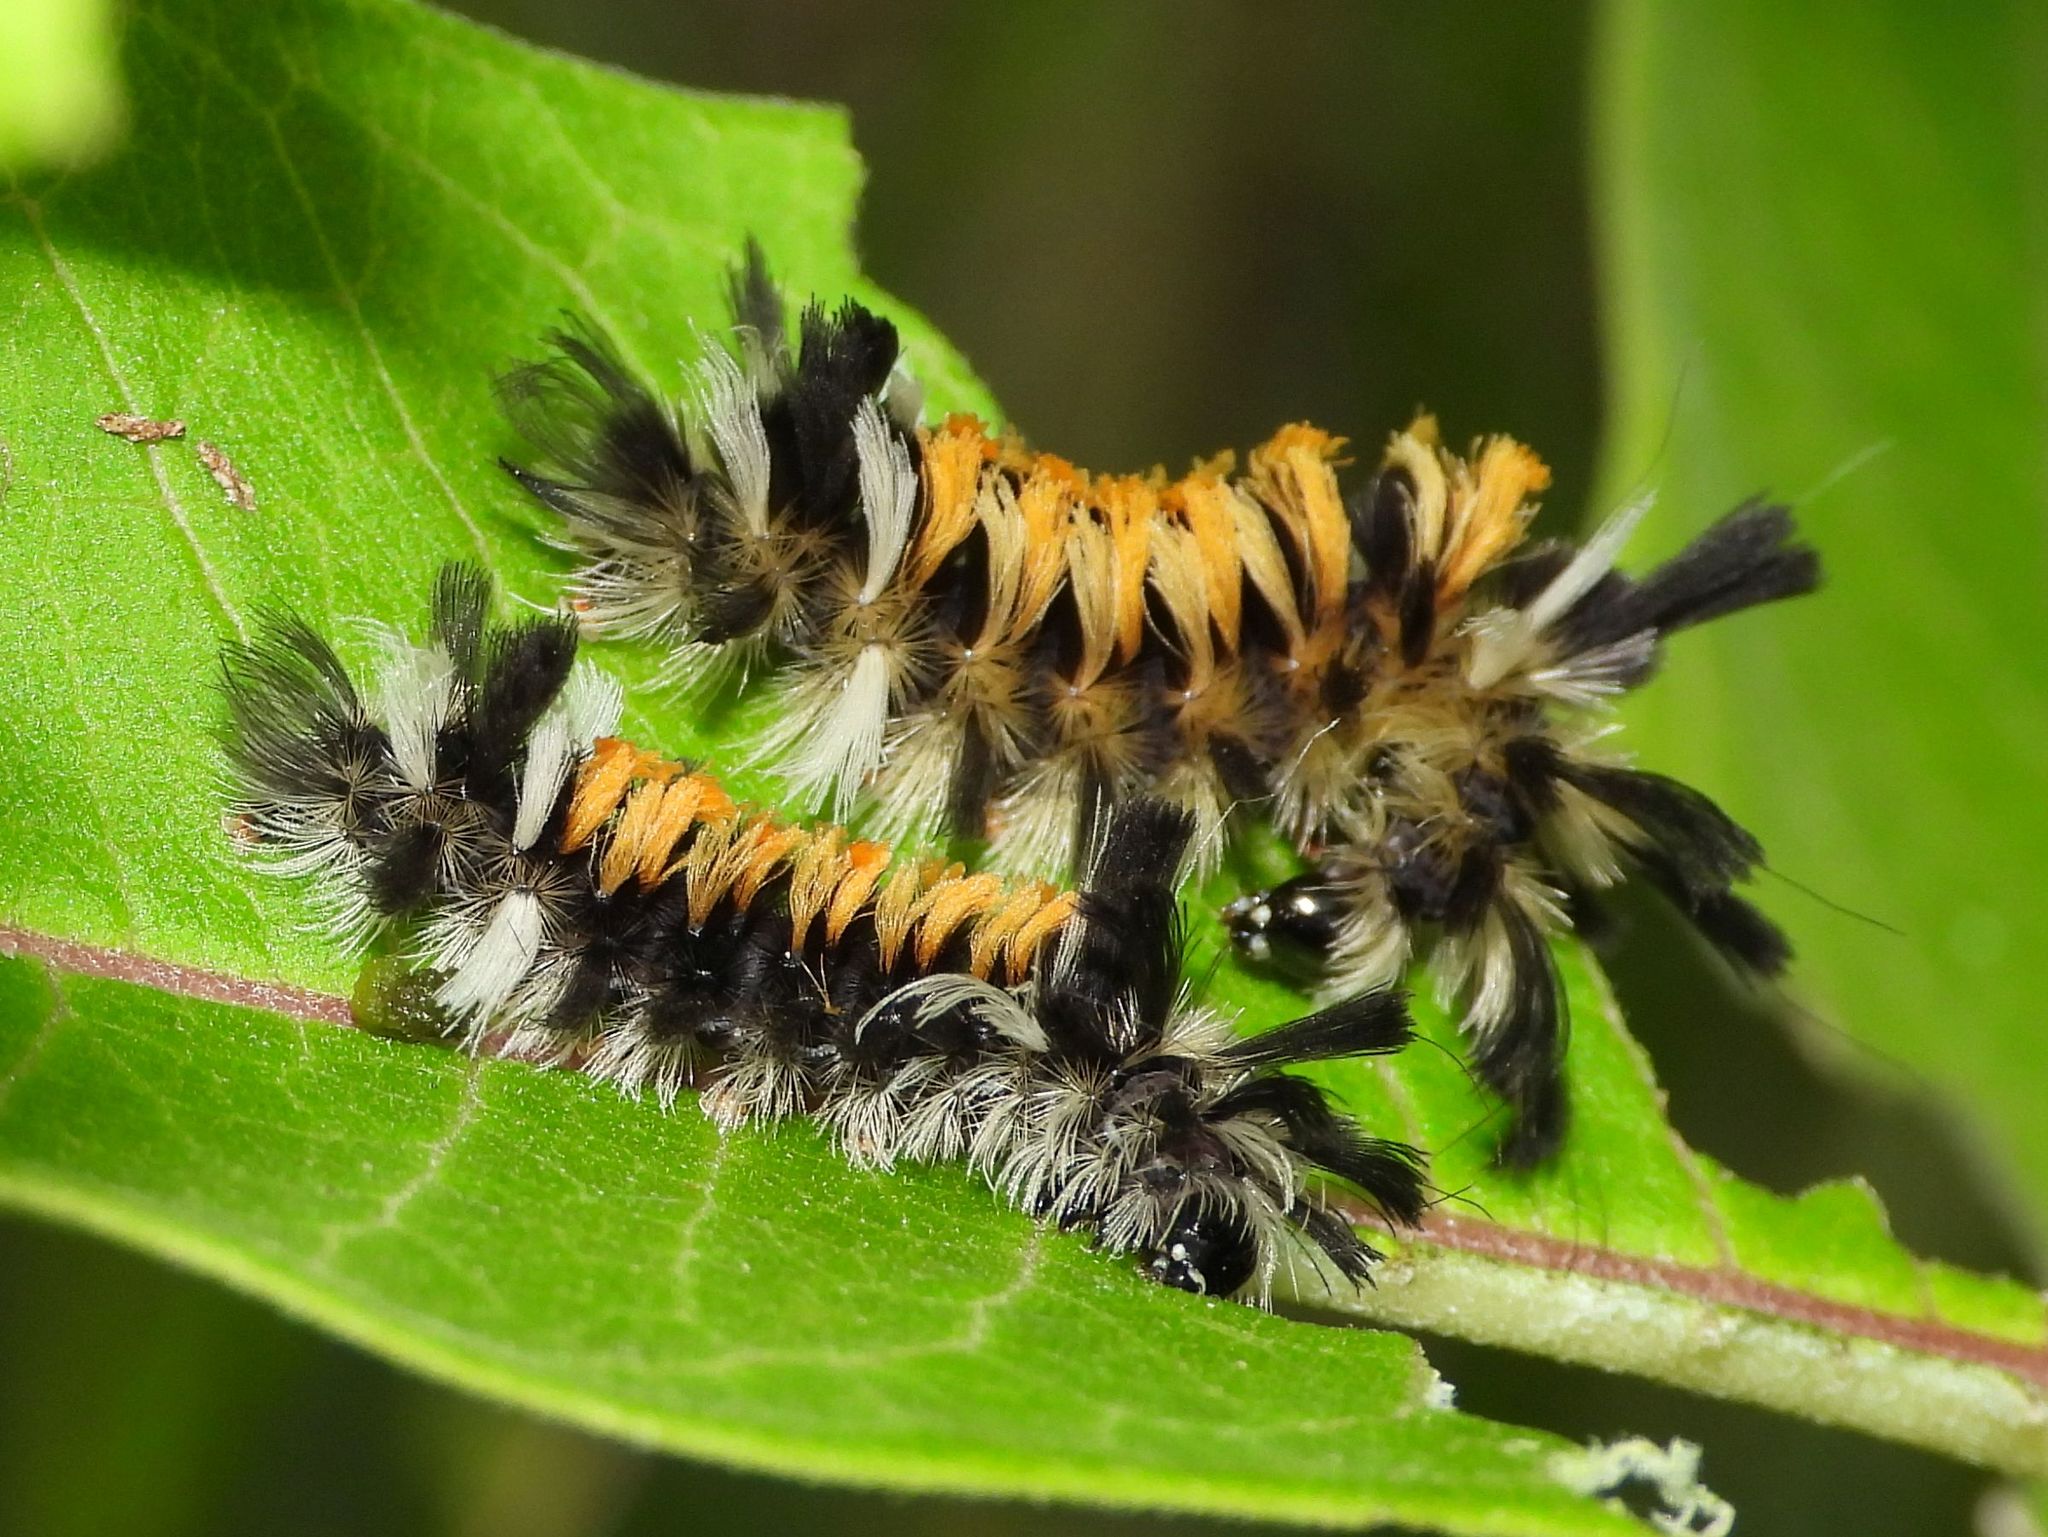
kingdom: Animalia
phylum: Arthropoda
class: Insecta
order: Lepidoptera
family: Erebidae
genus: Euchaetes
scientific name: Euchaetes egle
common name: Milkweed tussock moth
